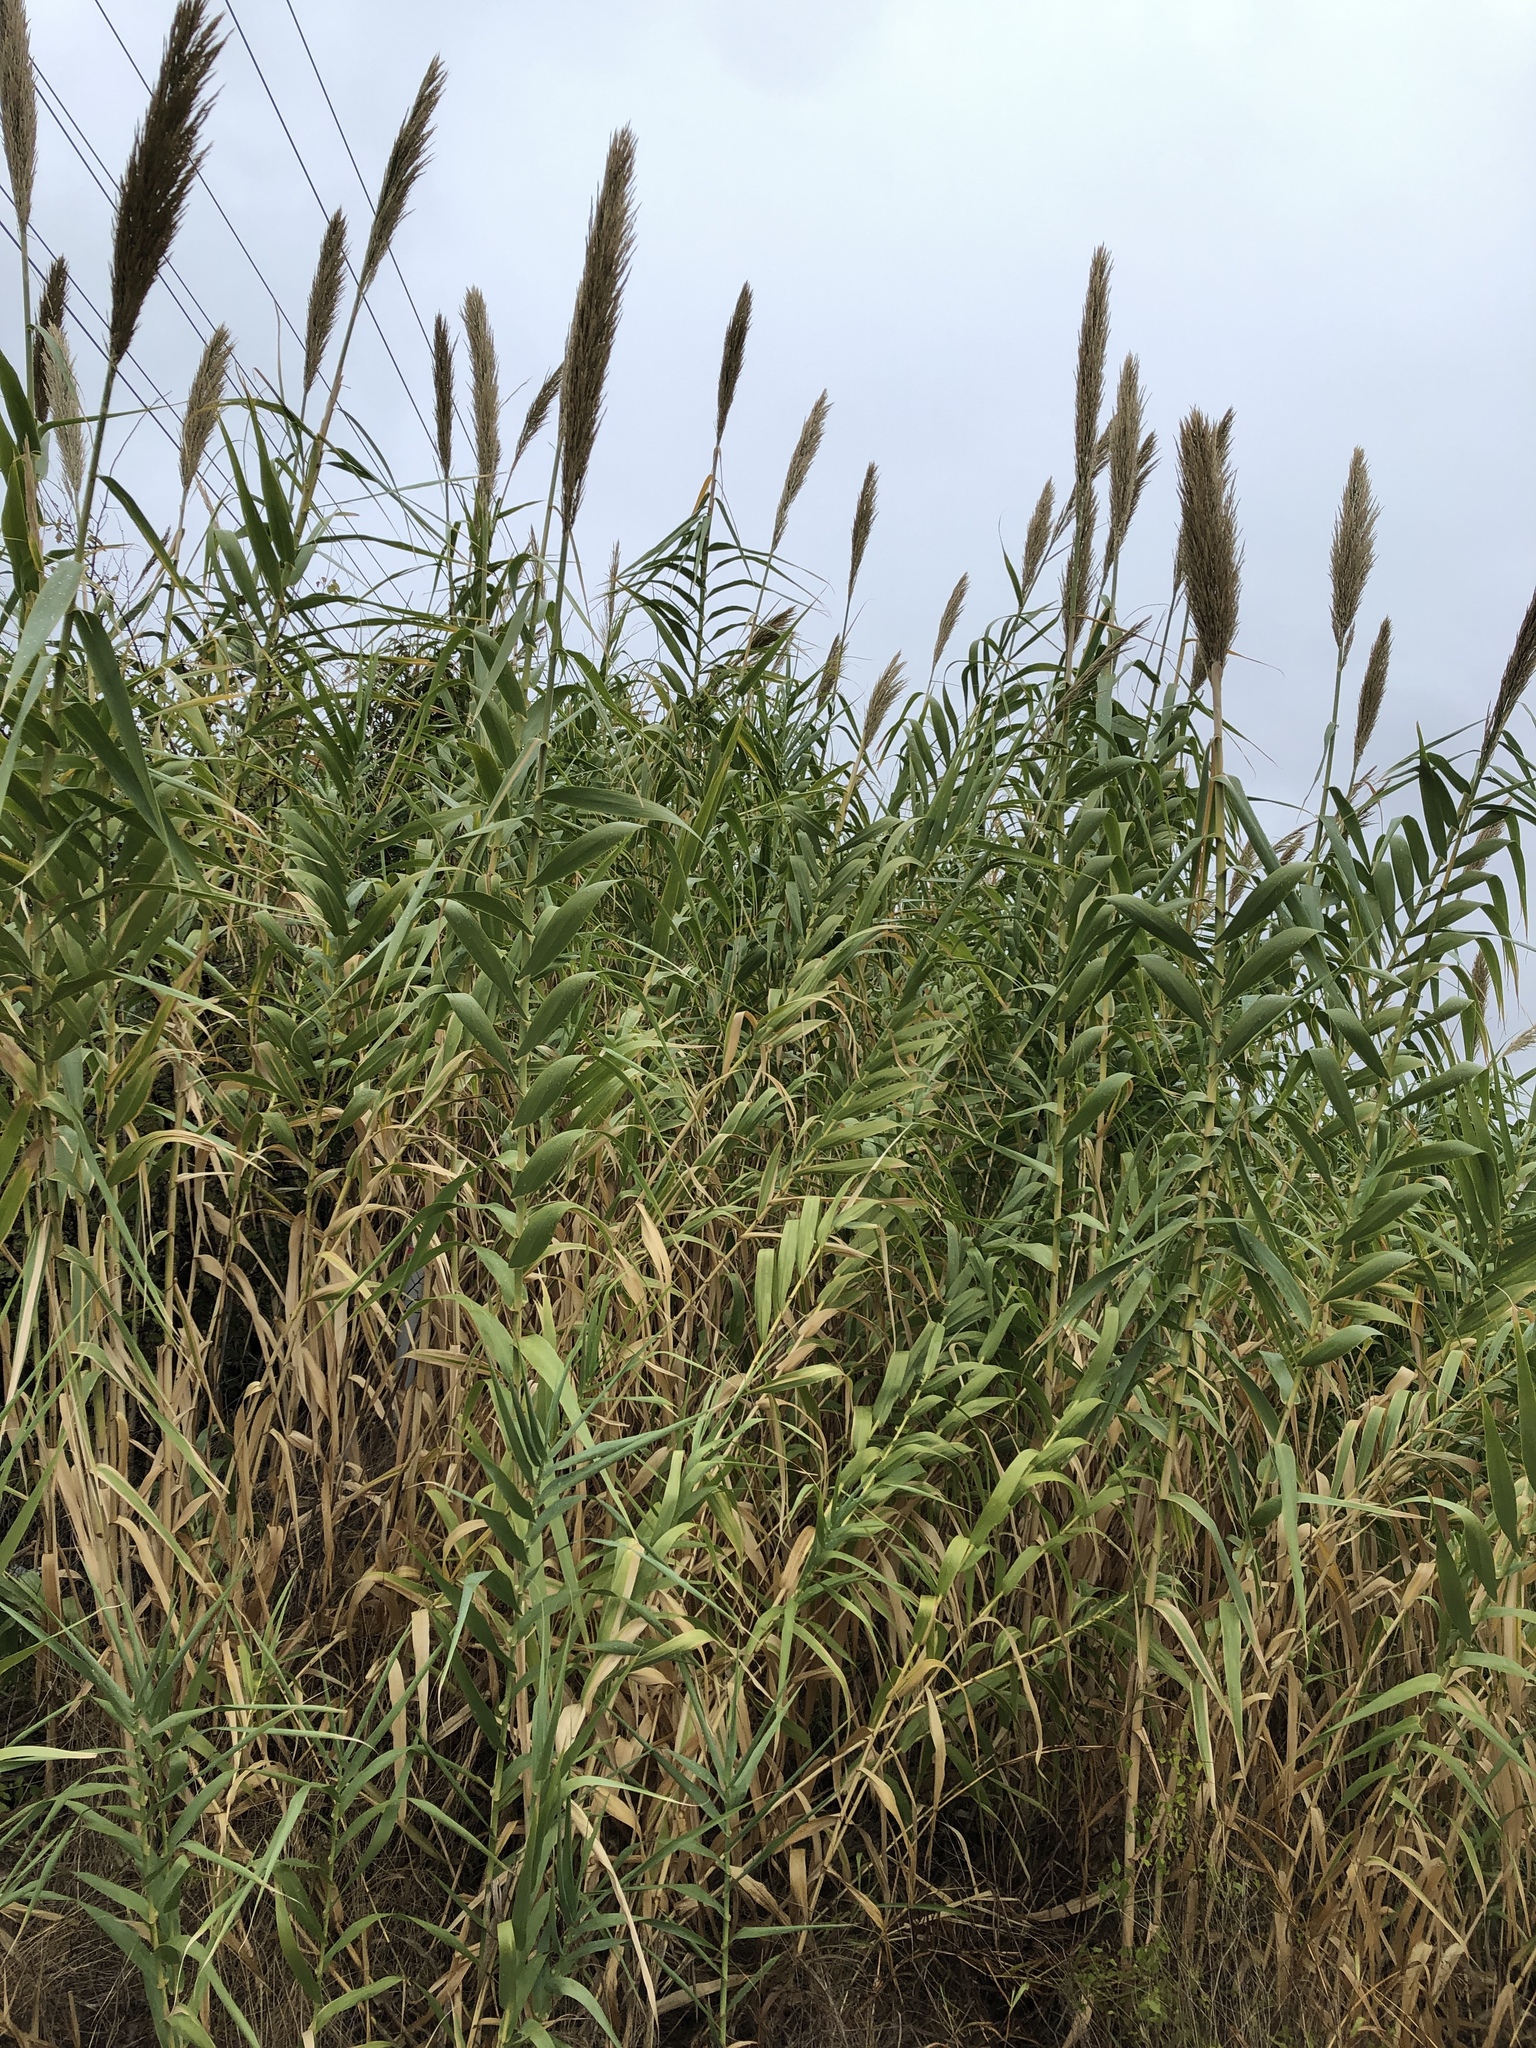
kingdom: Plantae
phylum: Tracheophyta
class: Liliopsida
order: Poales
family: Poaceae
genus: Arundo
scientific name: Arundo donax
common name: Giant reed
